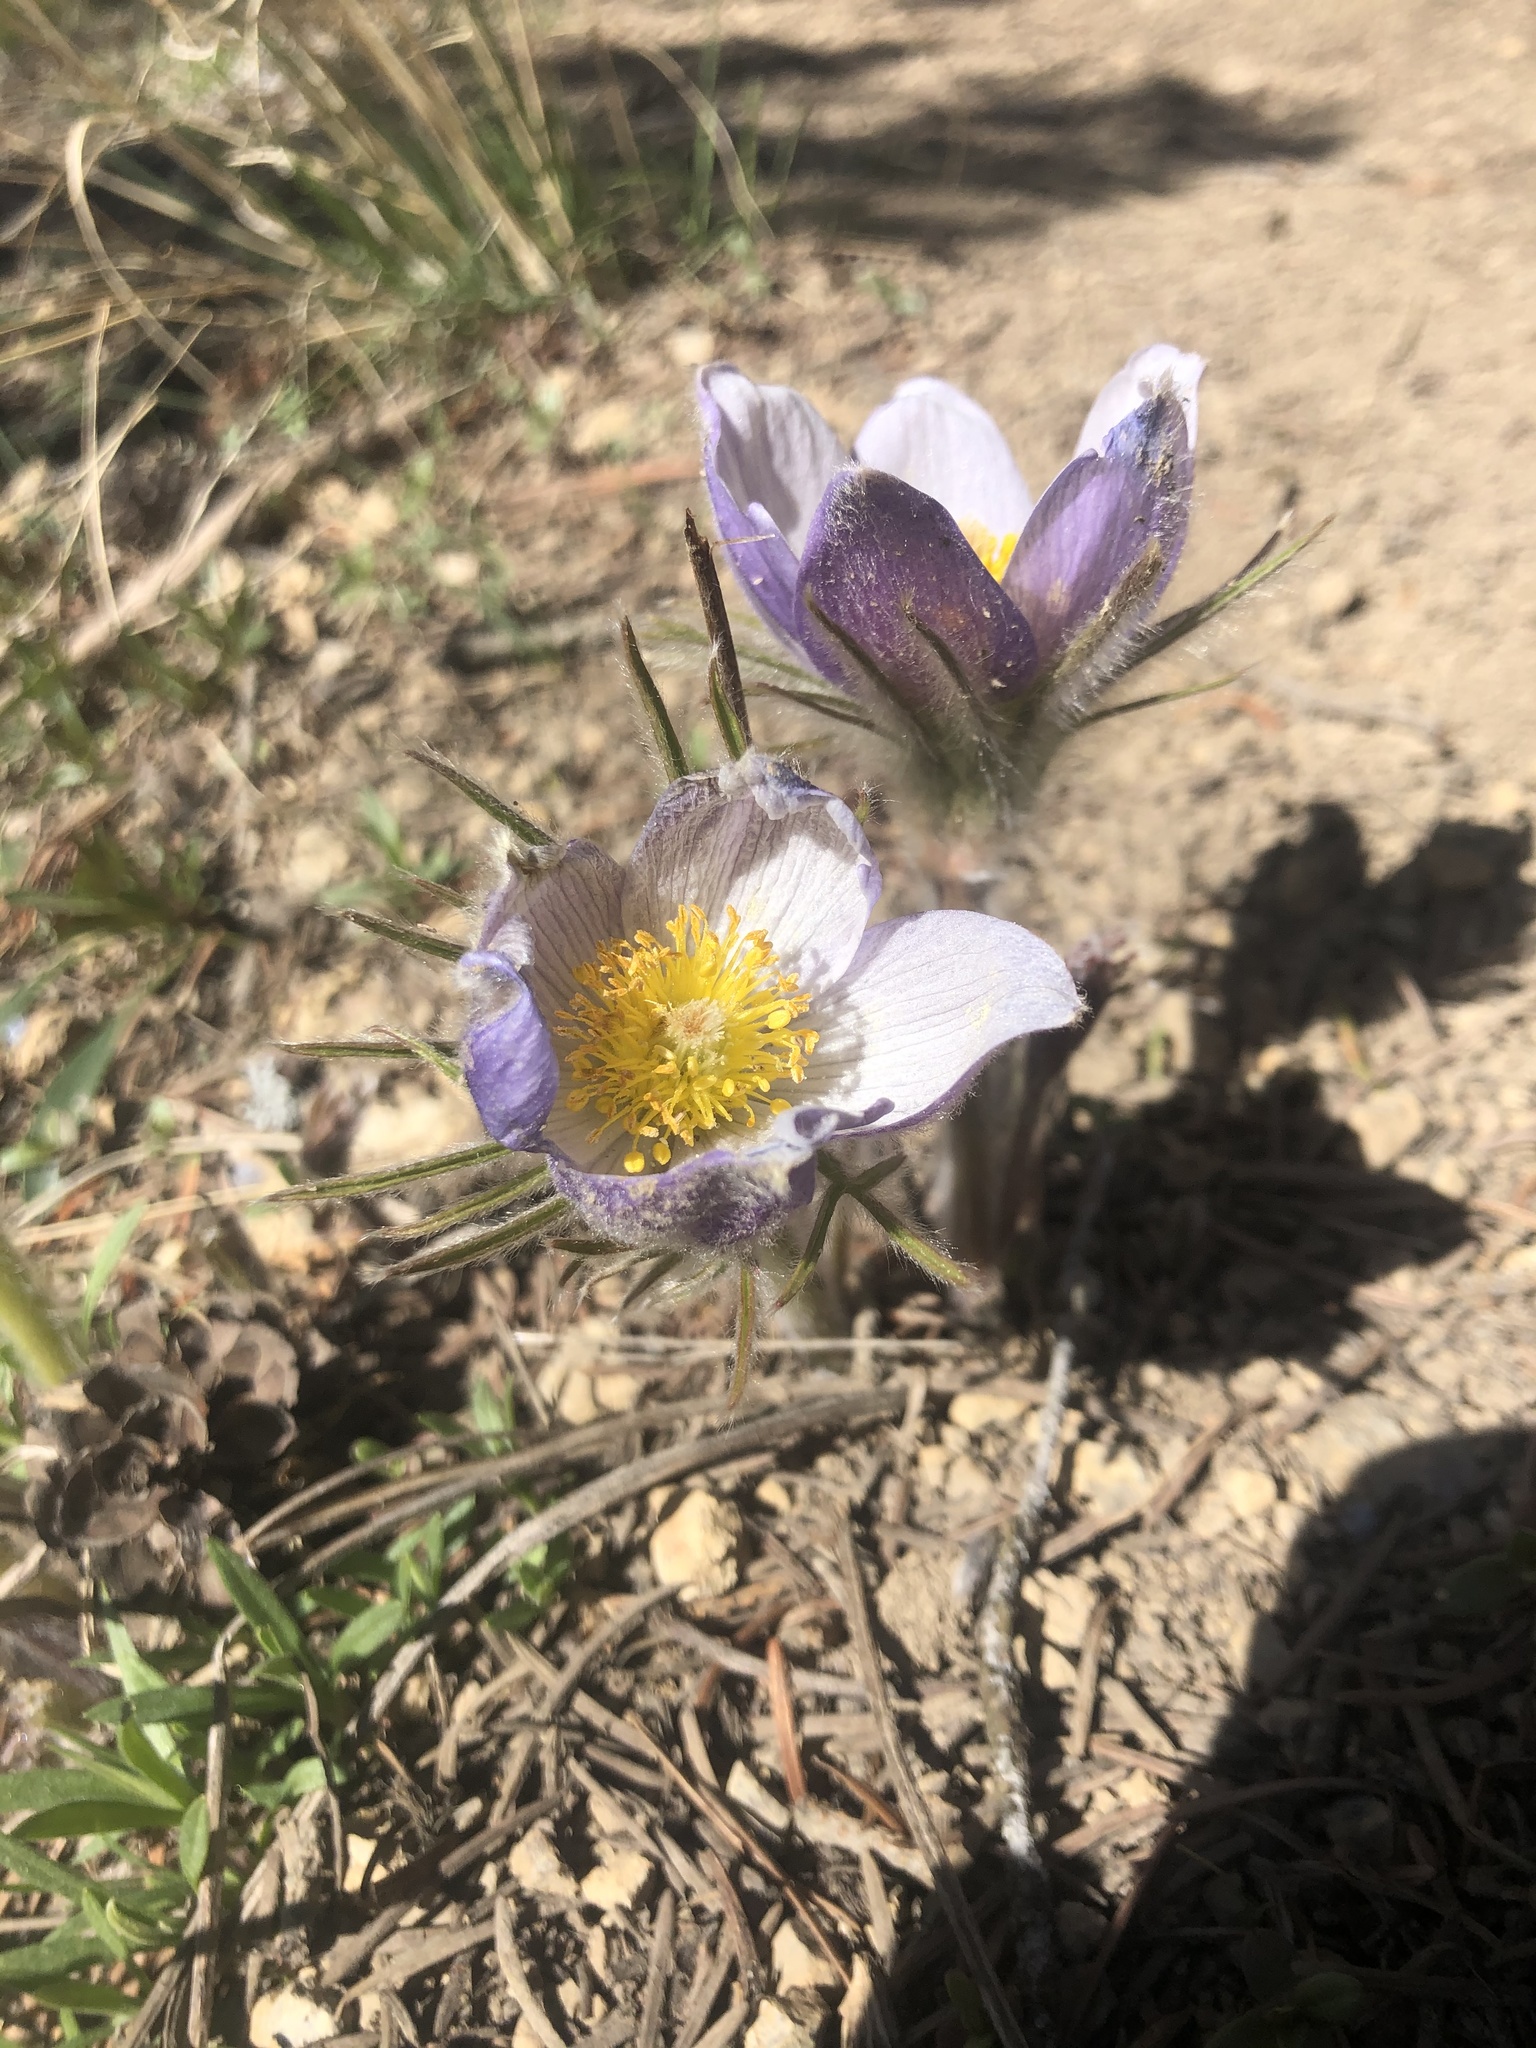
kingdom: Plantae
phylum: Tracheophyta
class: Magnoliopsida
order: Ranunculales
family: Ranunculaceae
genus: Pulsatilla
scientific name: Pulsatilla nuttalliana
